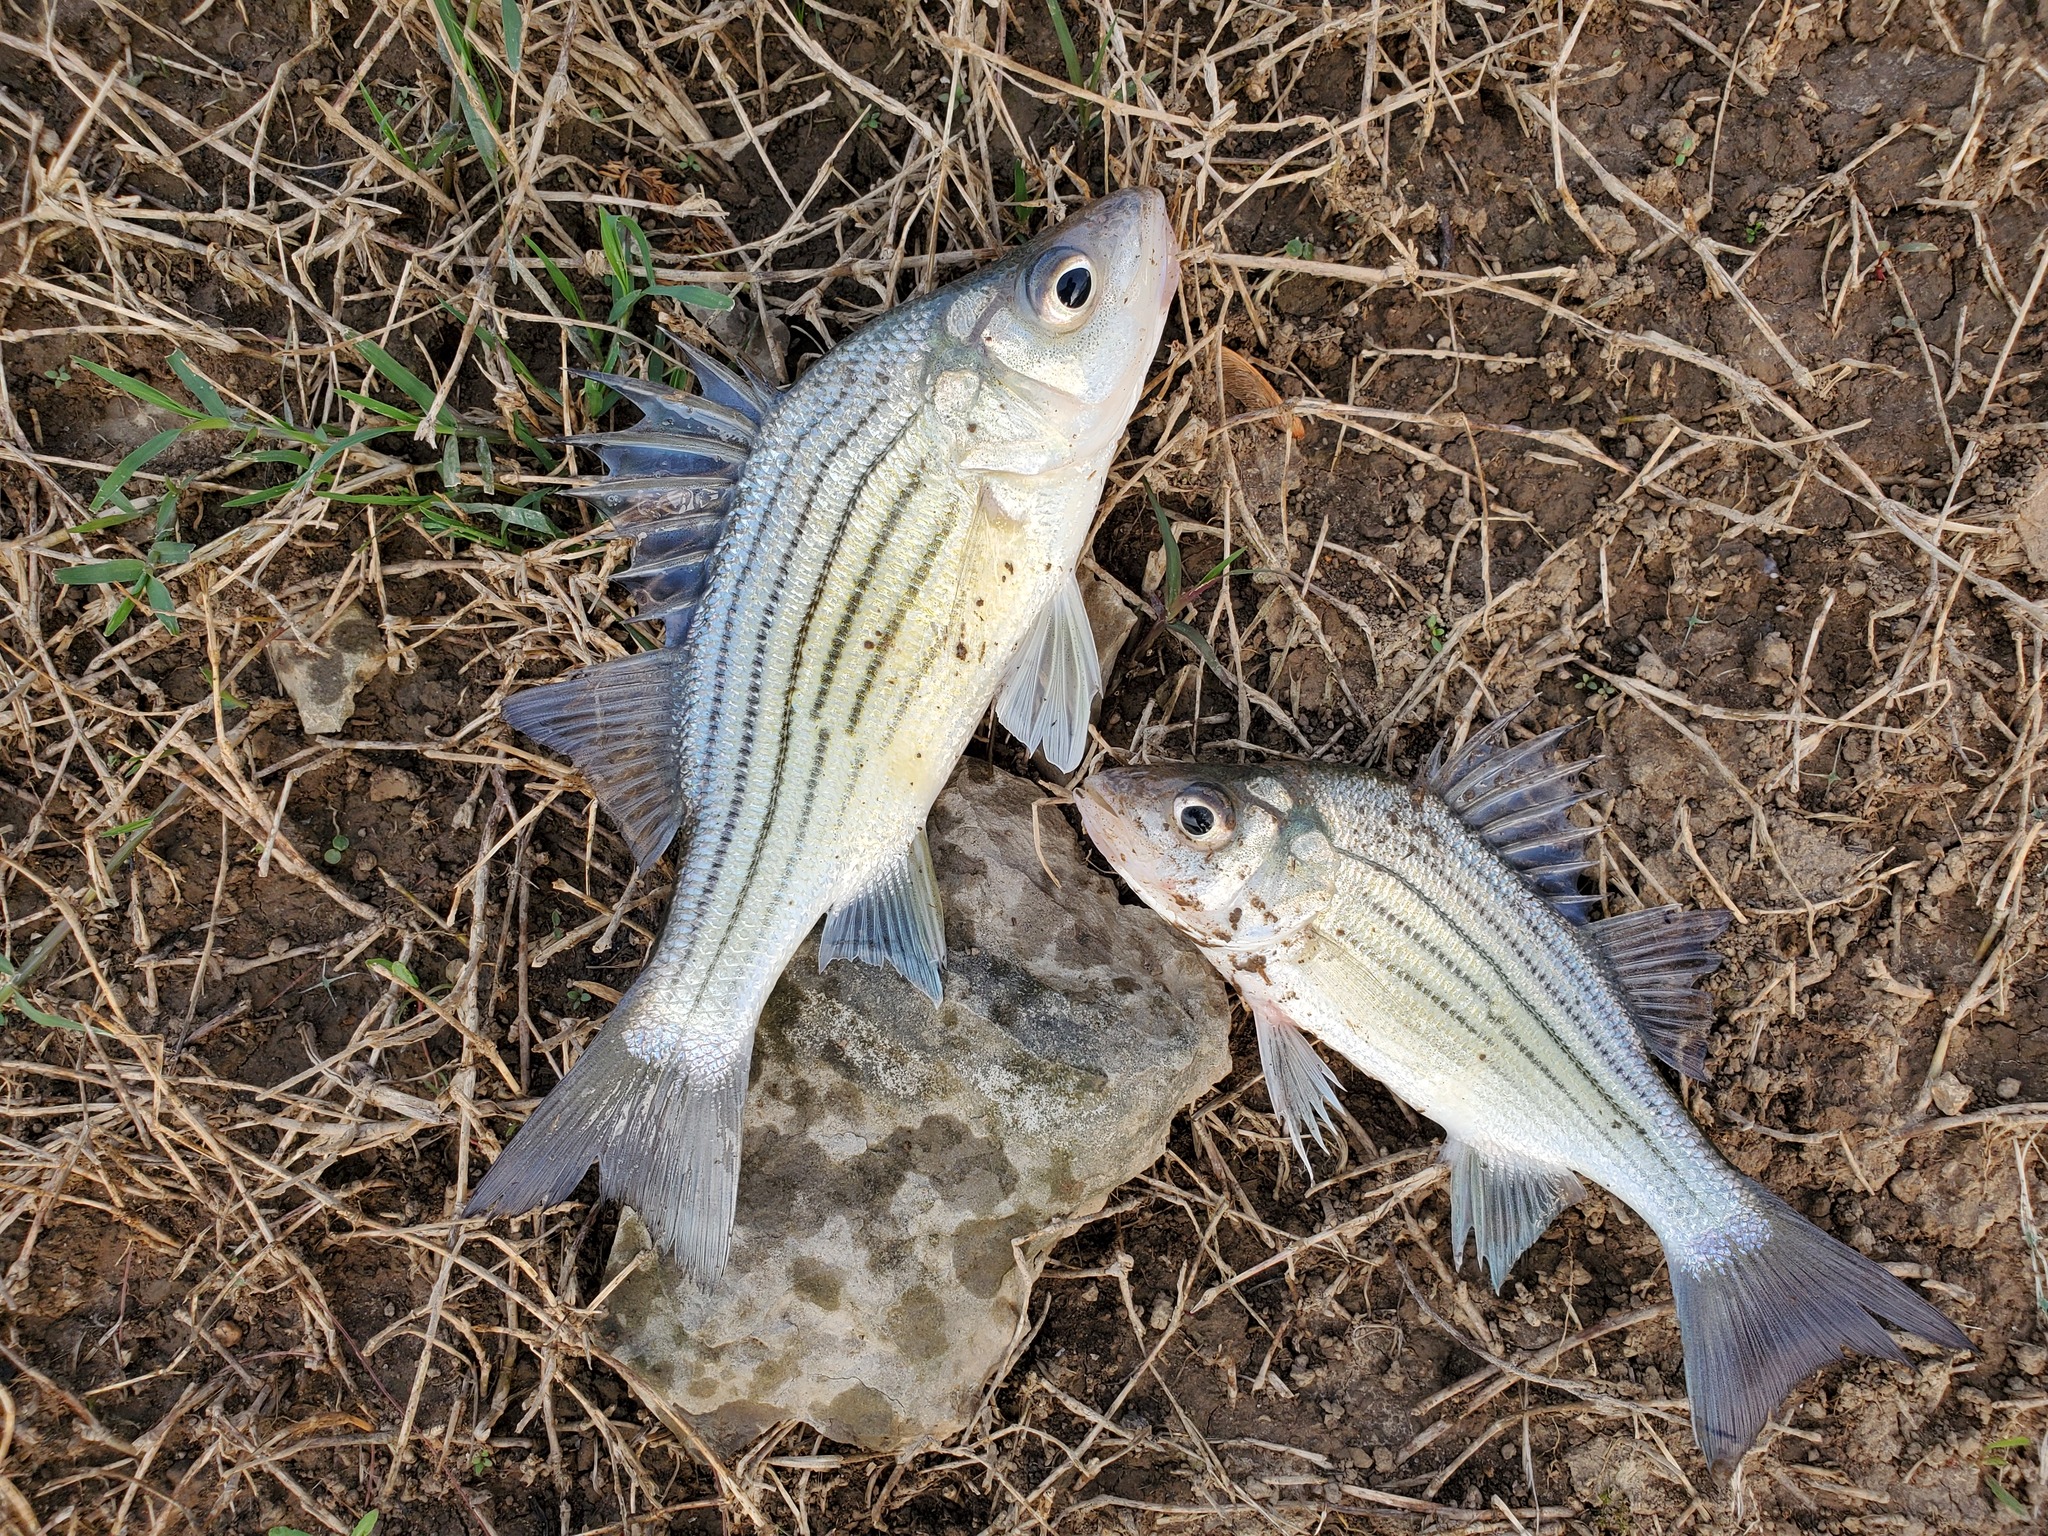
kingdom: Animalia
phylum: Chordata
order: Perciformes
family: Moronidae
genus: Morone
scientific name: Morone mississippiensis
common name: Yellow bass
